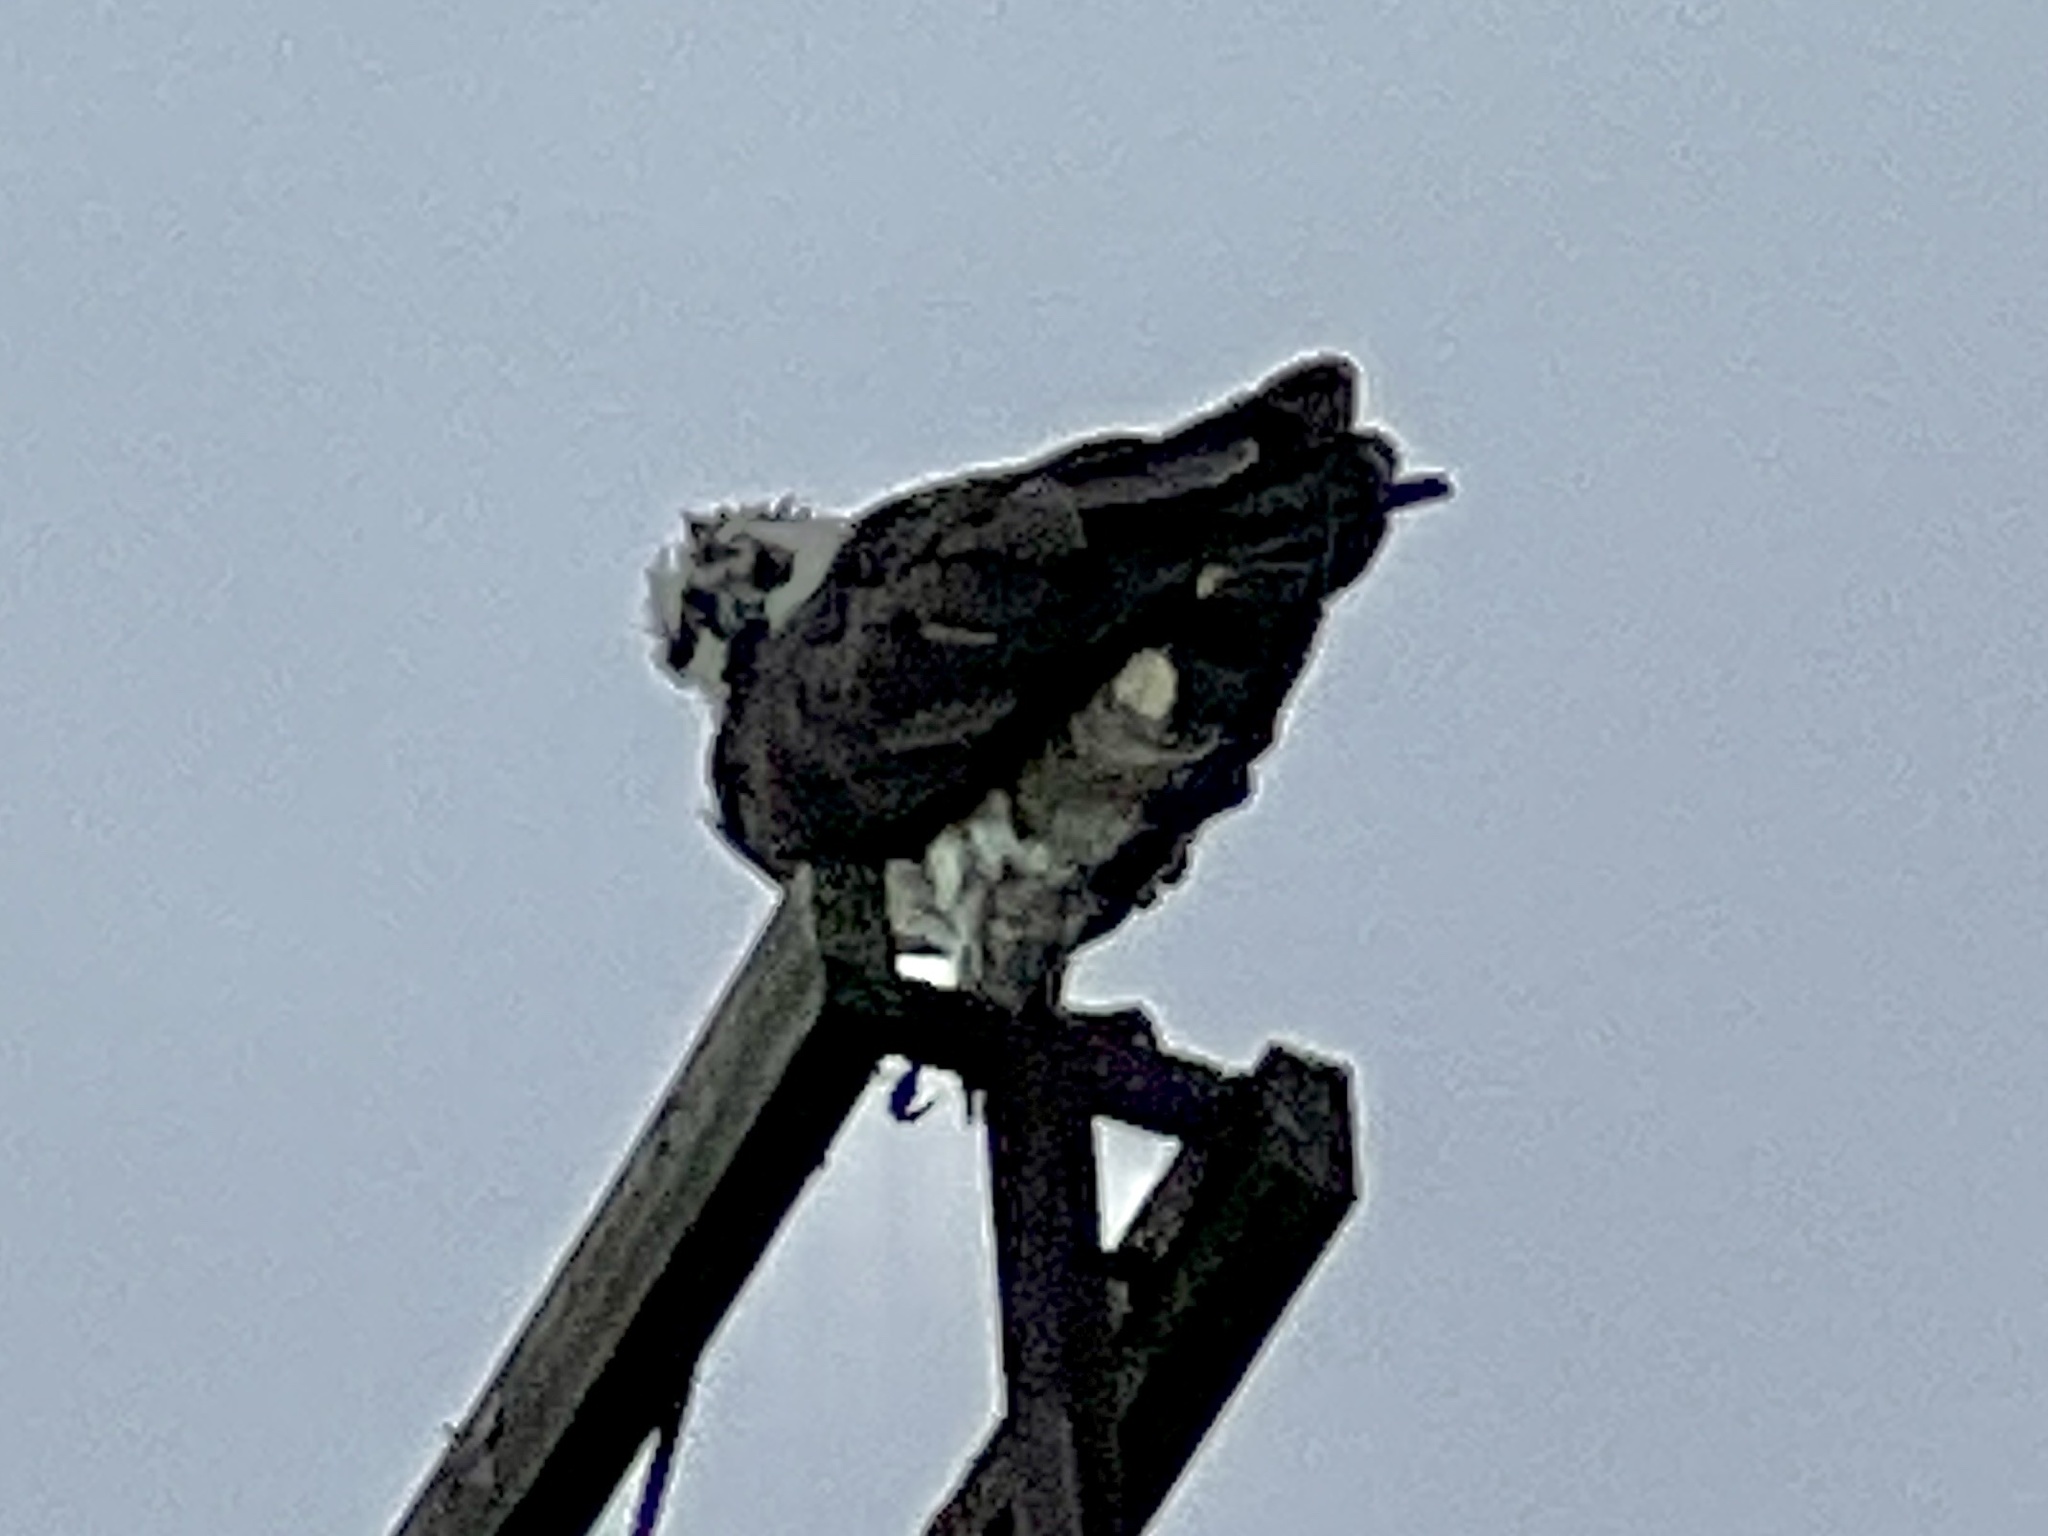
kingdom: Animalia
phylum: Chordata
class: Aves
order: Accipitriformes
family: Pandionidae
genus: Pandion
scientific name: Pandion haliaetus
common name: Osprey
